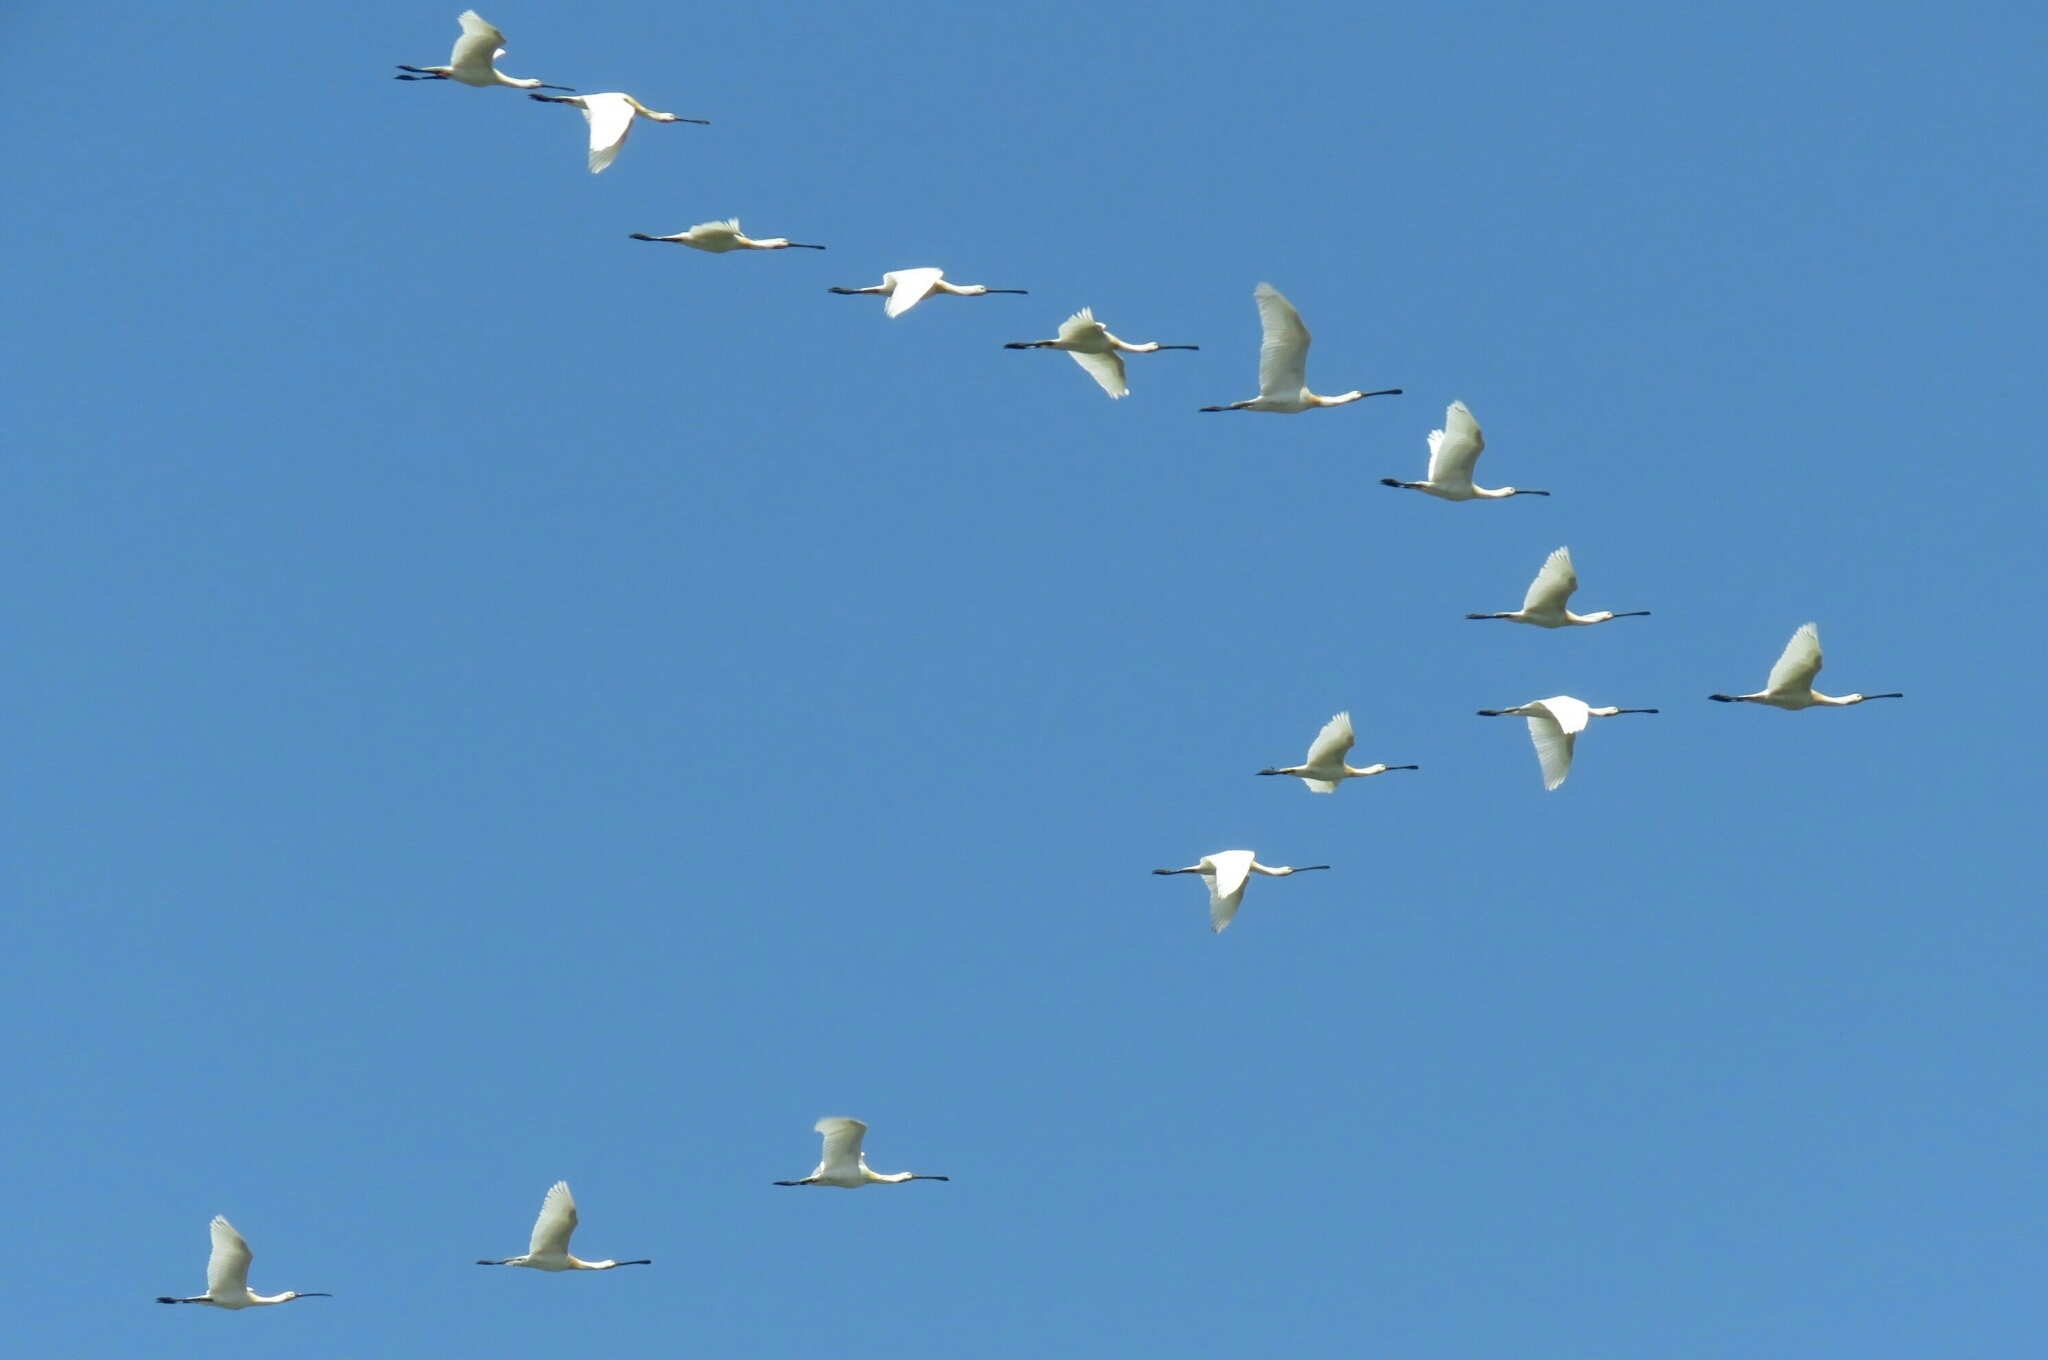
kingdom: Animalia
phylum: Chordata
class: Aves
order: Pelecaniformes
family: Threskiornithidae
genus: Platalea
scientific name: Platalea leucorodia
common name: Eurasian spoonbill
